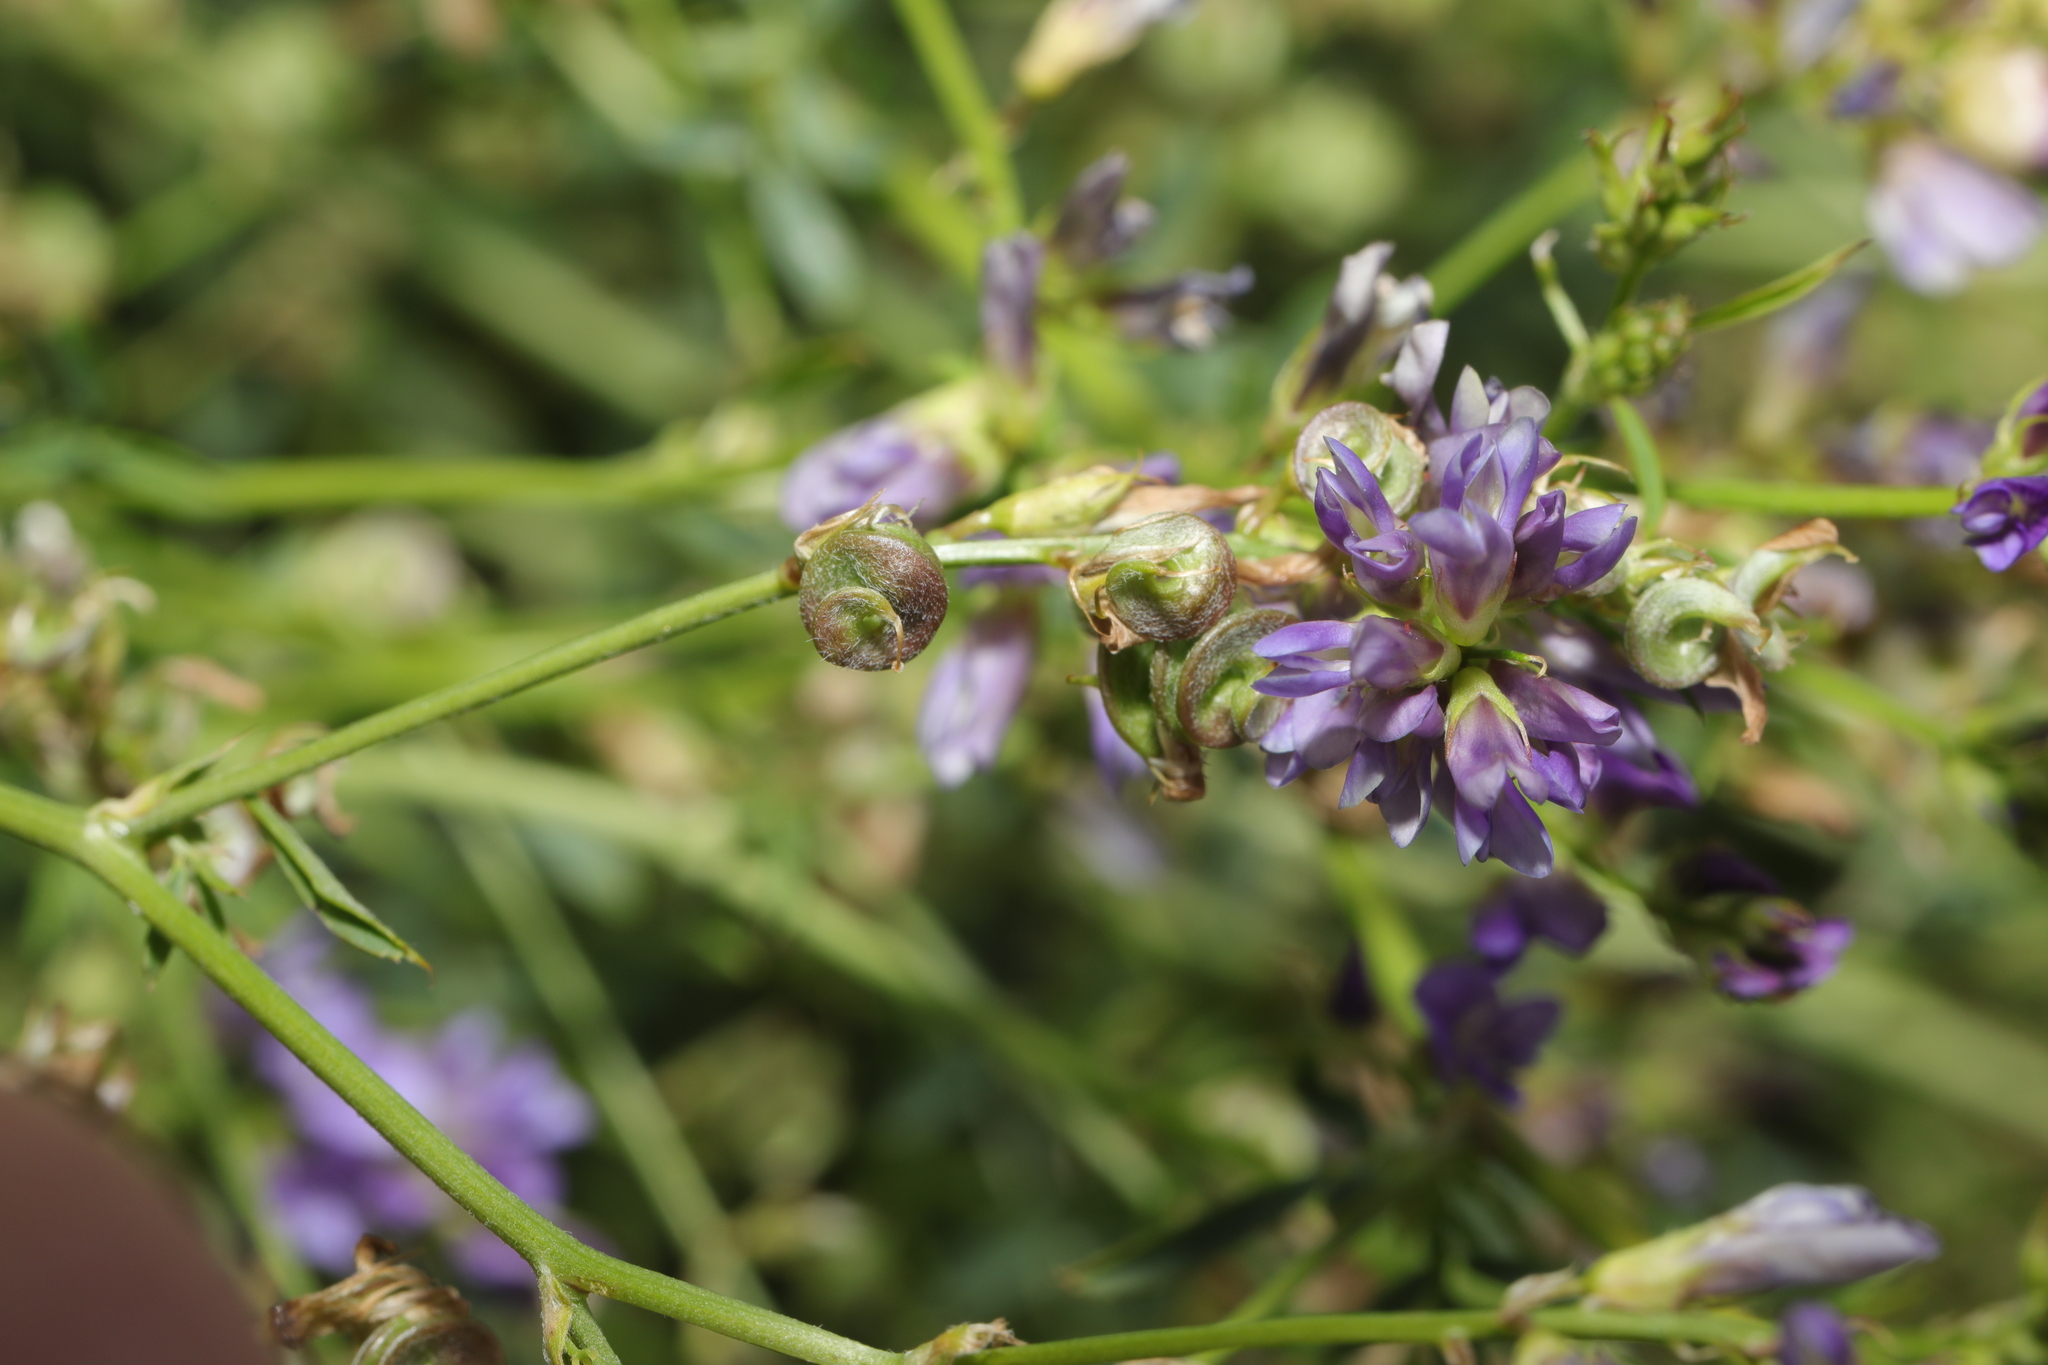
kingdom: Plantae
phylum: Tracheophyta
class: Magnoliopsida
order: Fabales
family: Fabaceae
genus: Medicago
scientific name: Medicago sativa
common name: Alfalfa
